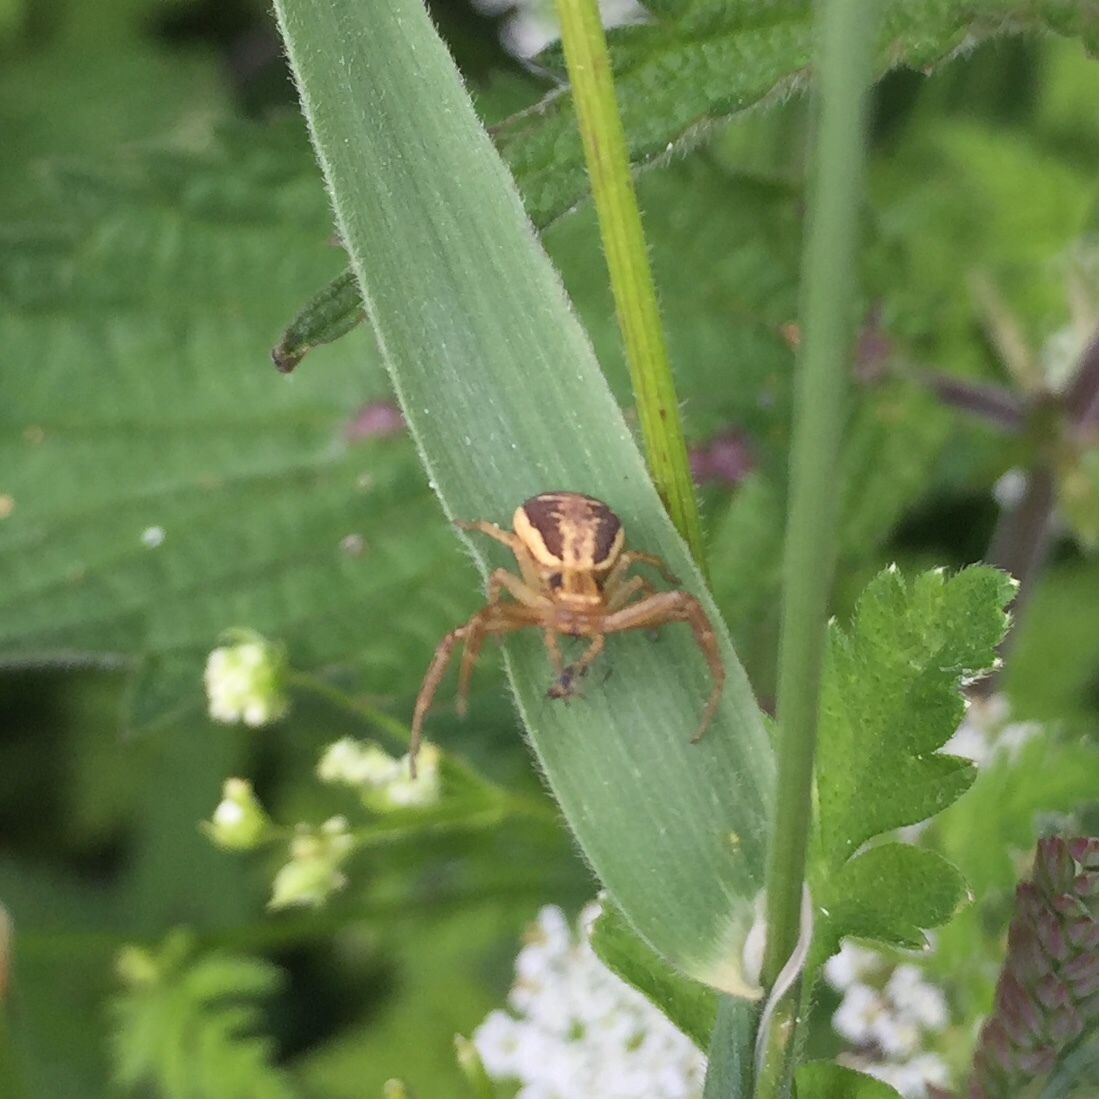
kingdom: Animalia
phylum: Arthropoda
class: Arachnida
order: Araneae
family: Thomisidae
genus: Xysticus
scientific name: Xysticus ulmi
